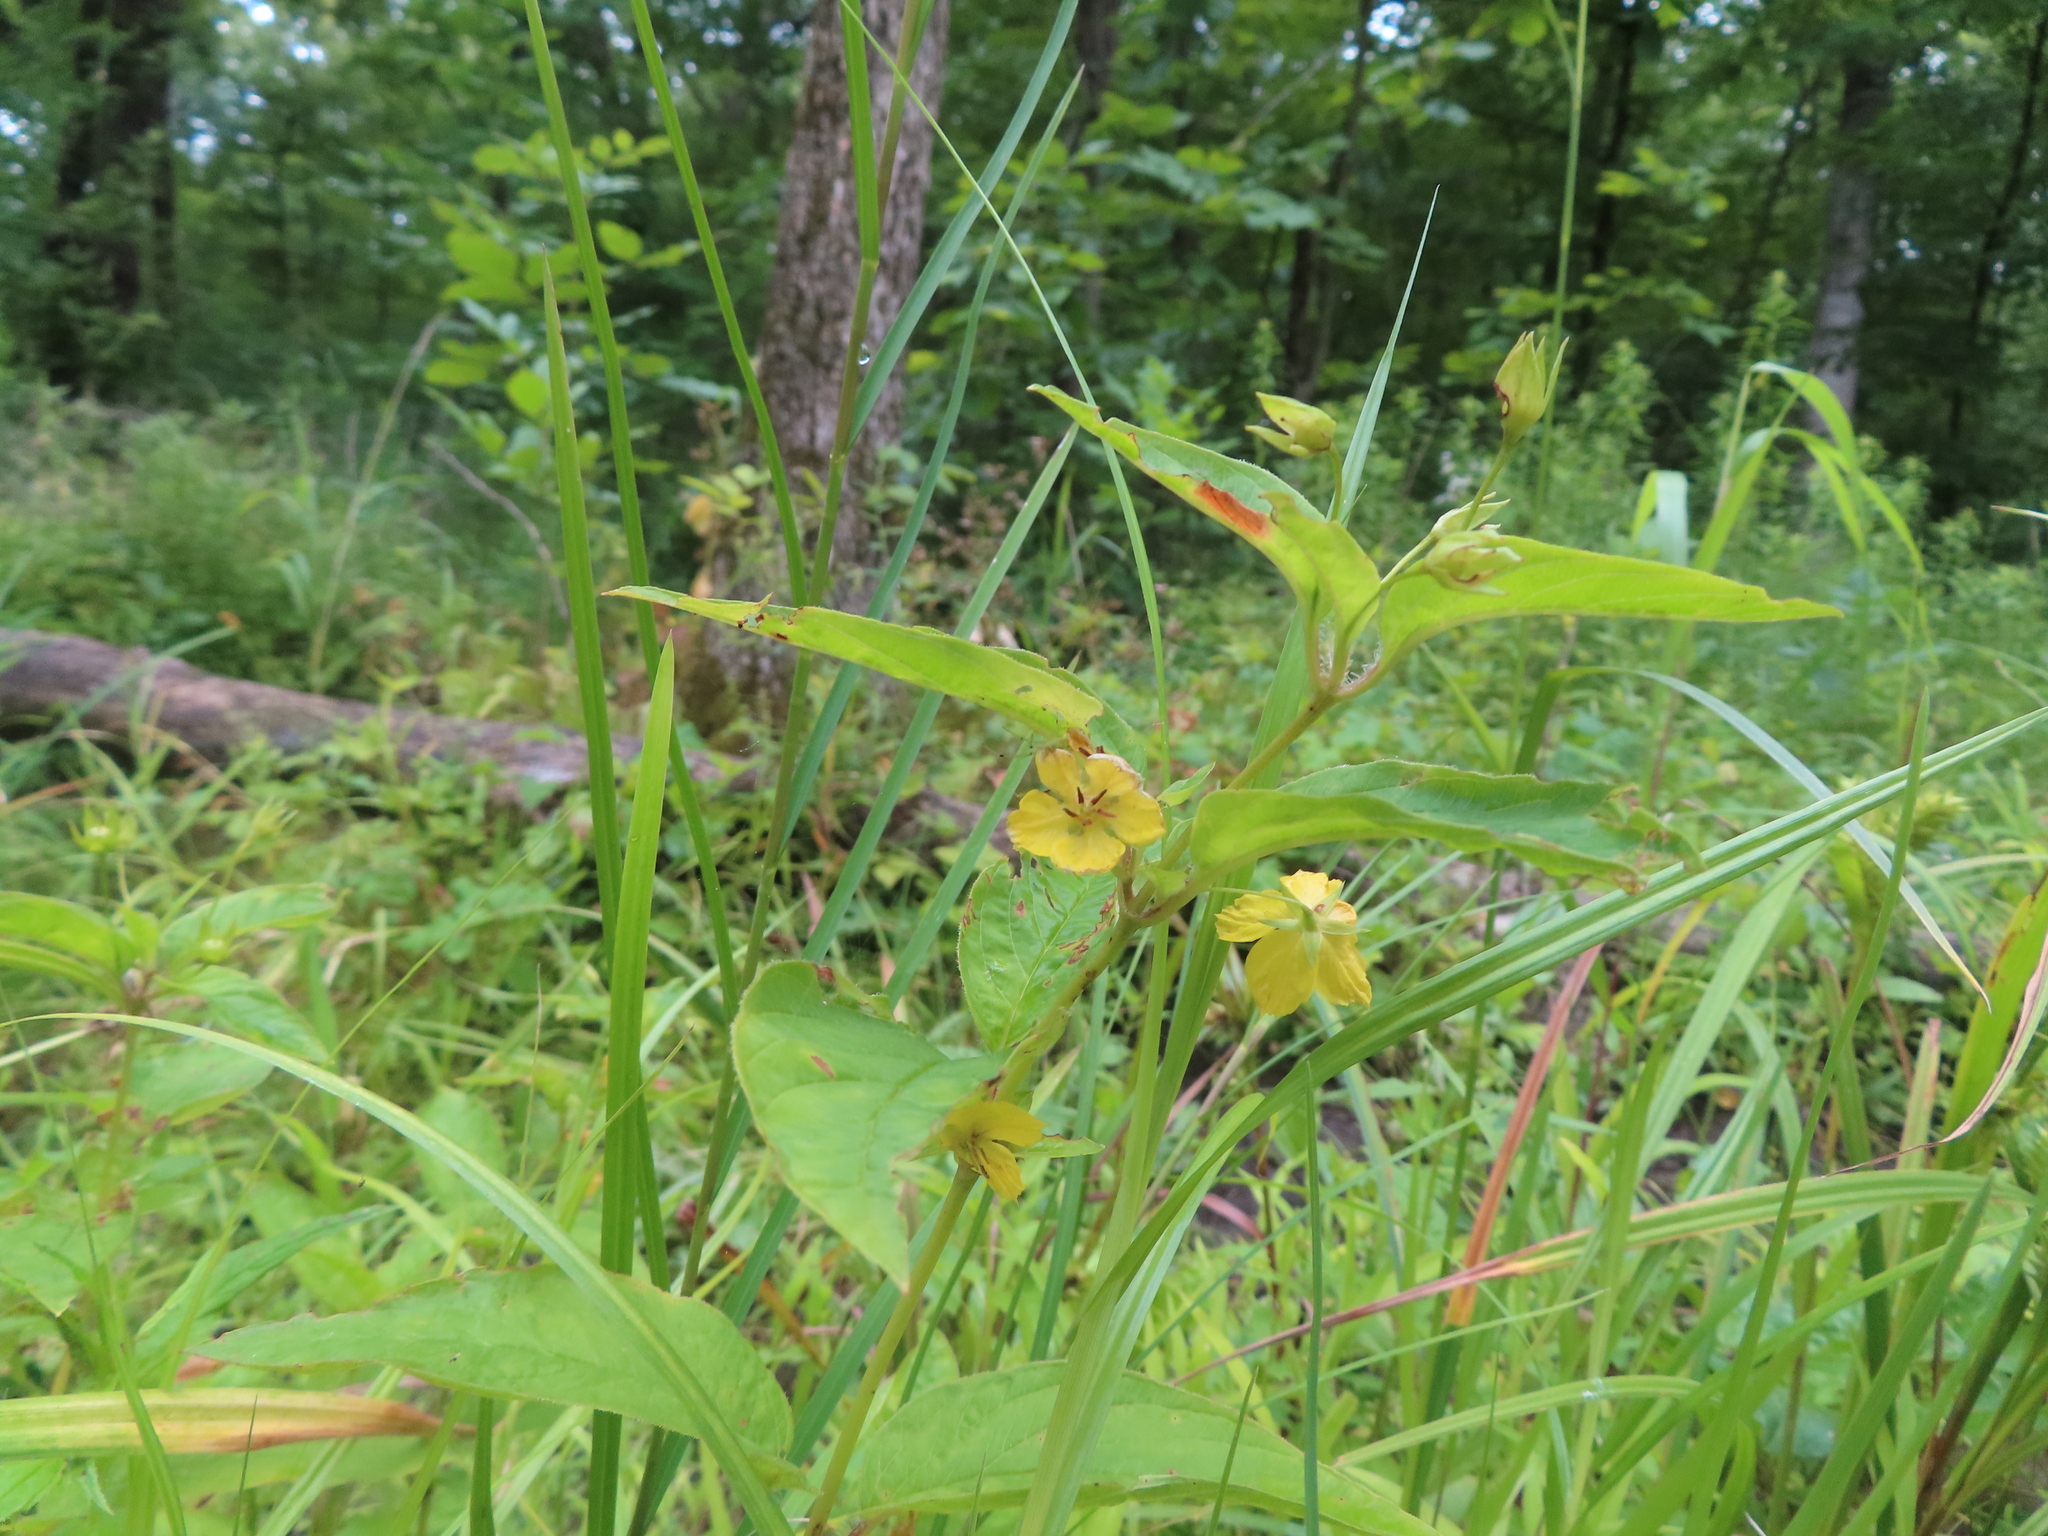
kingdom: Plantae
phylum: Tracheophyta
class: Magnoliopsida
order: Ericales
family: Primulaceae
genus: Lysimachia
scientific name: Lysimachia ciliata
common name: Fringed loosestrife
